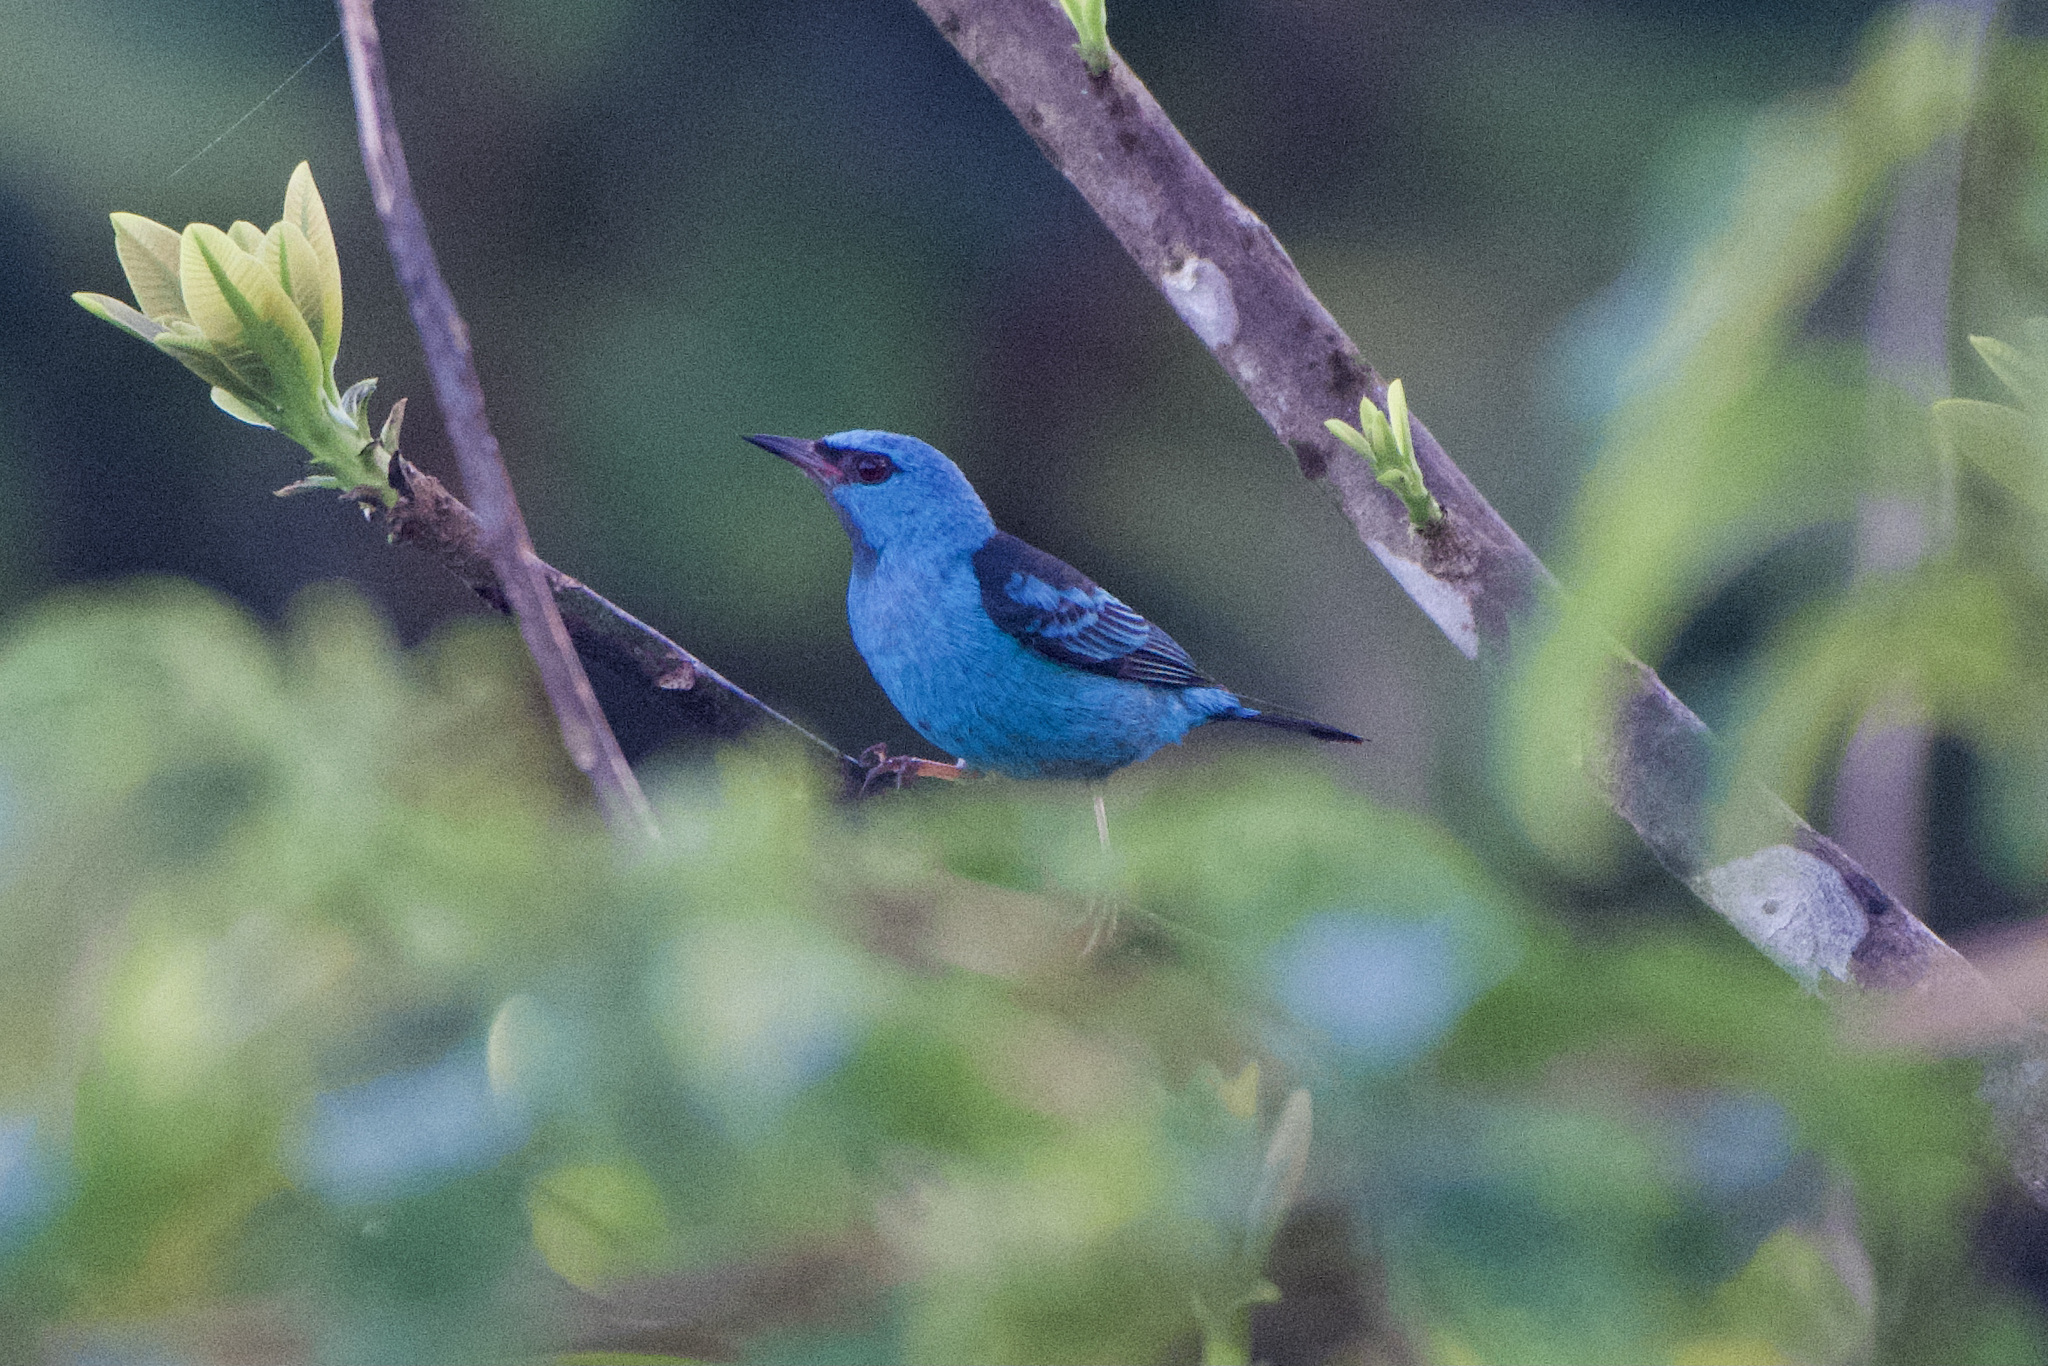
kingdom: Animalia
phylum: Chordata
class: Aves
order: Passeriformes
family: Thraupidae
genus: Dacnis
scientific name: Dacnis cayana
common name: Blue dacnis
